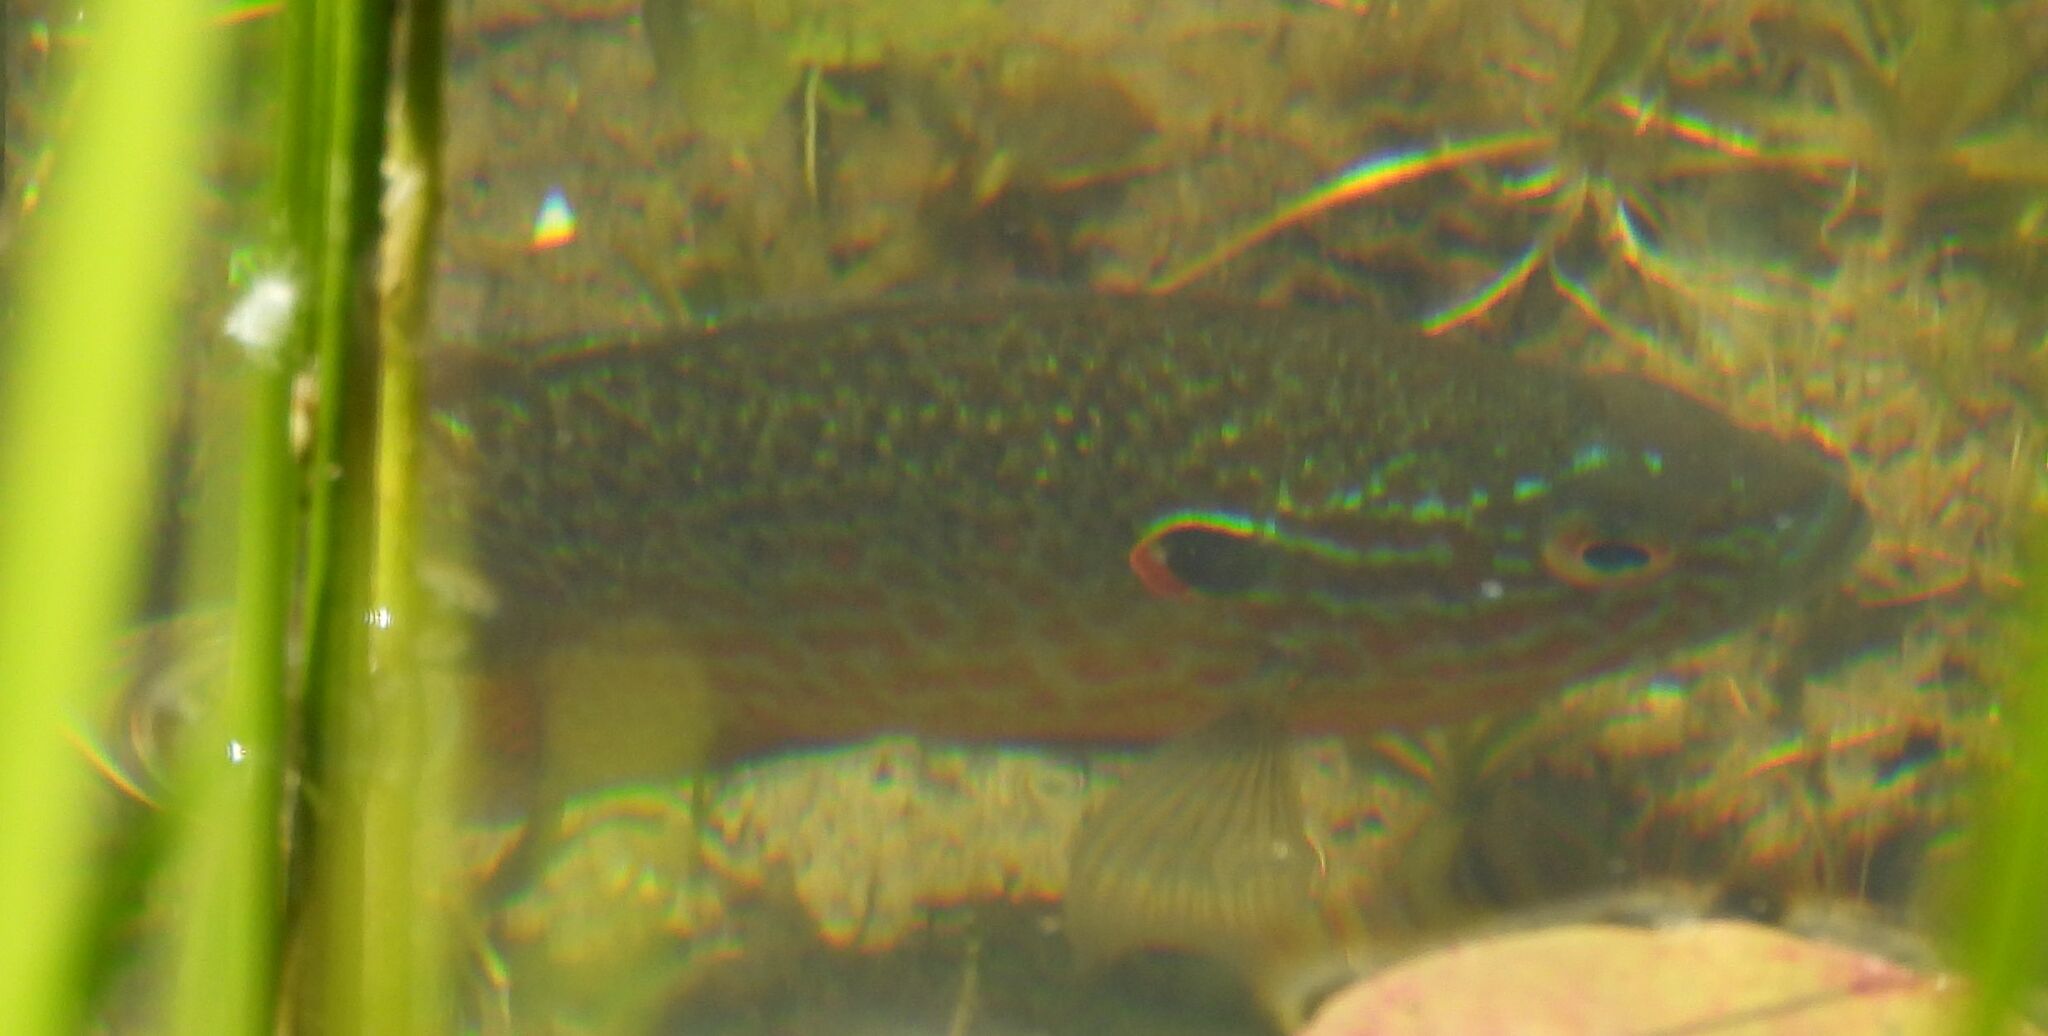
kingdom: Animalia
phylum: Chordata
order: Perciformes
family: Centrarchidae
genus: Lepomis
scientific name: Lepomis gibbosus
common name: Pumpkinseed
